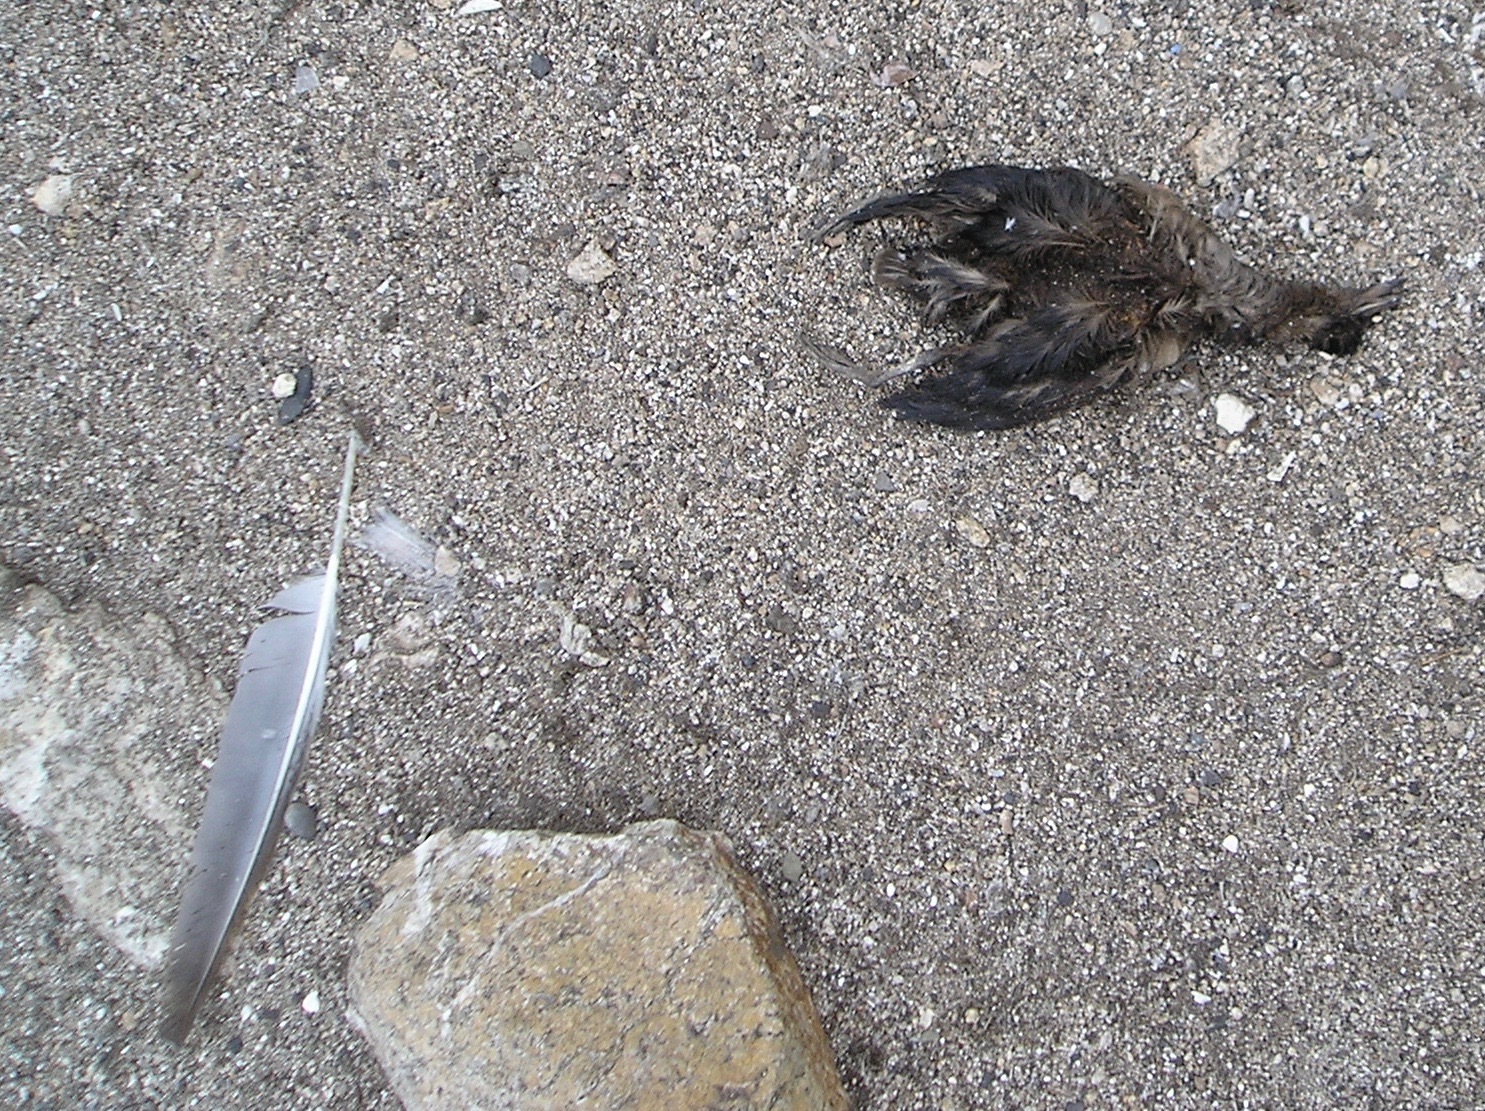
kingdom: Animalia
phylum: Chordata
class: Aves
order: Charadriiformes
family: Alcidae
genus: Ptychoramphus
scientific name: Ptychoramphus aleuticus
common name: Cassin's auklet
